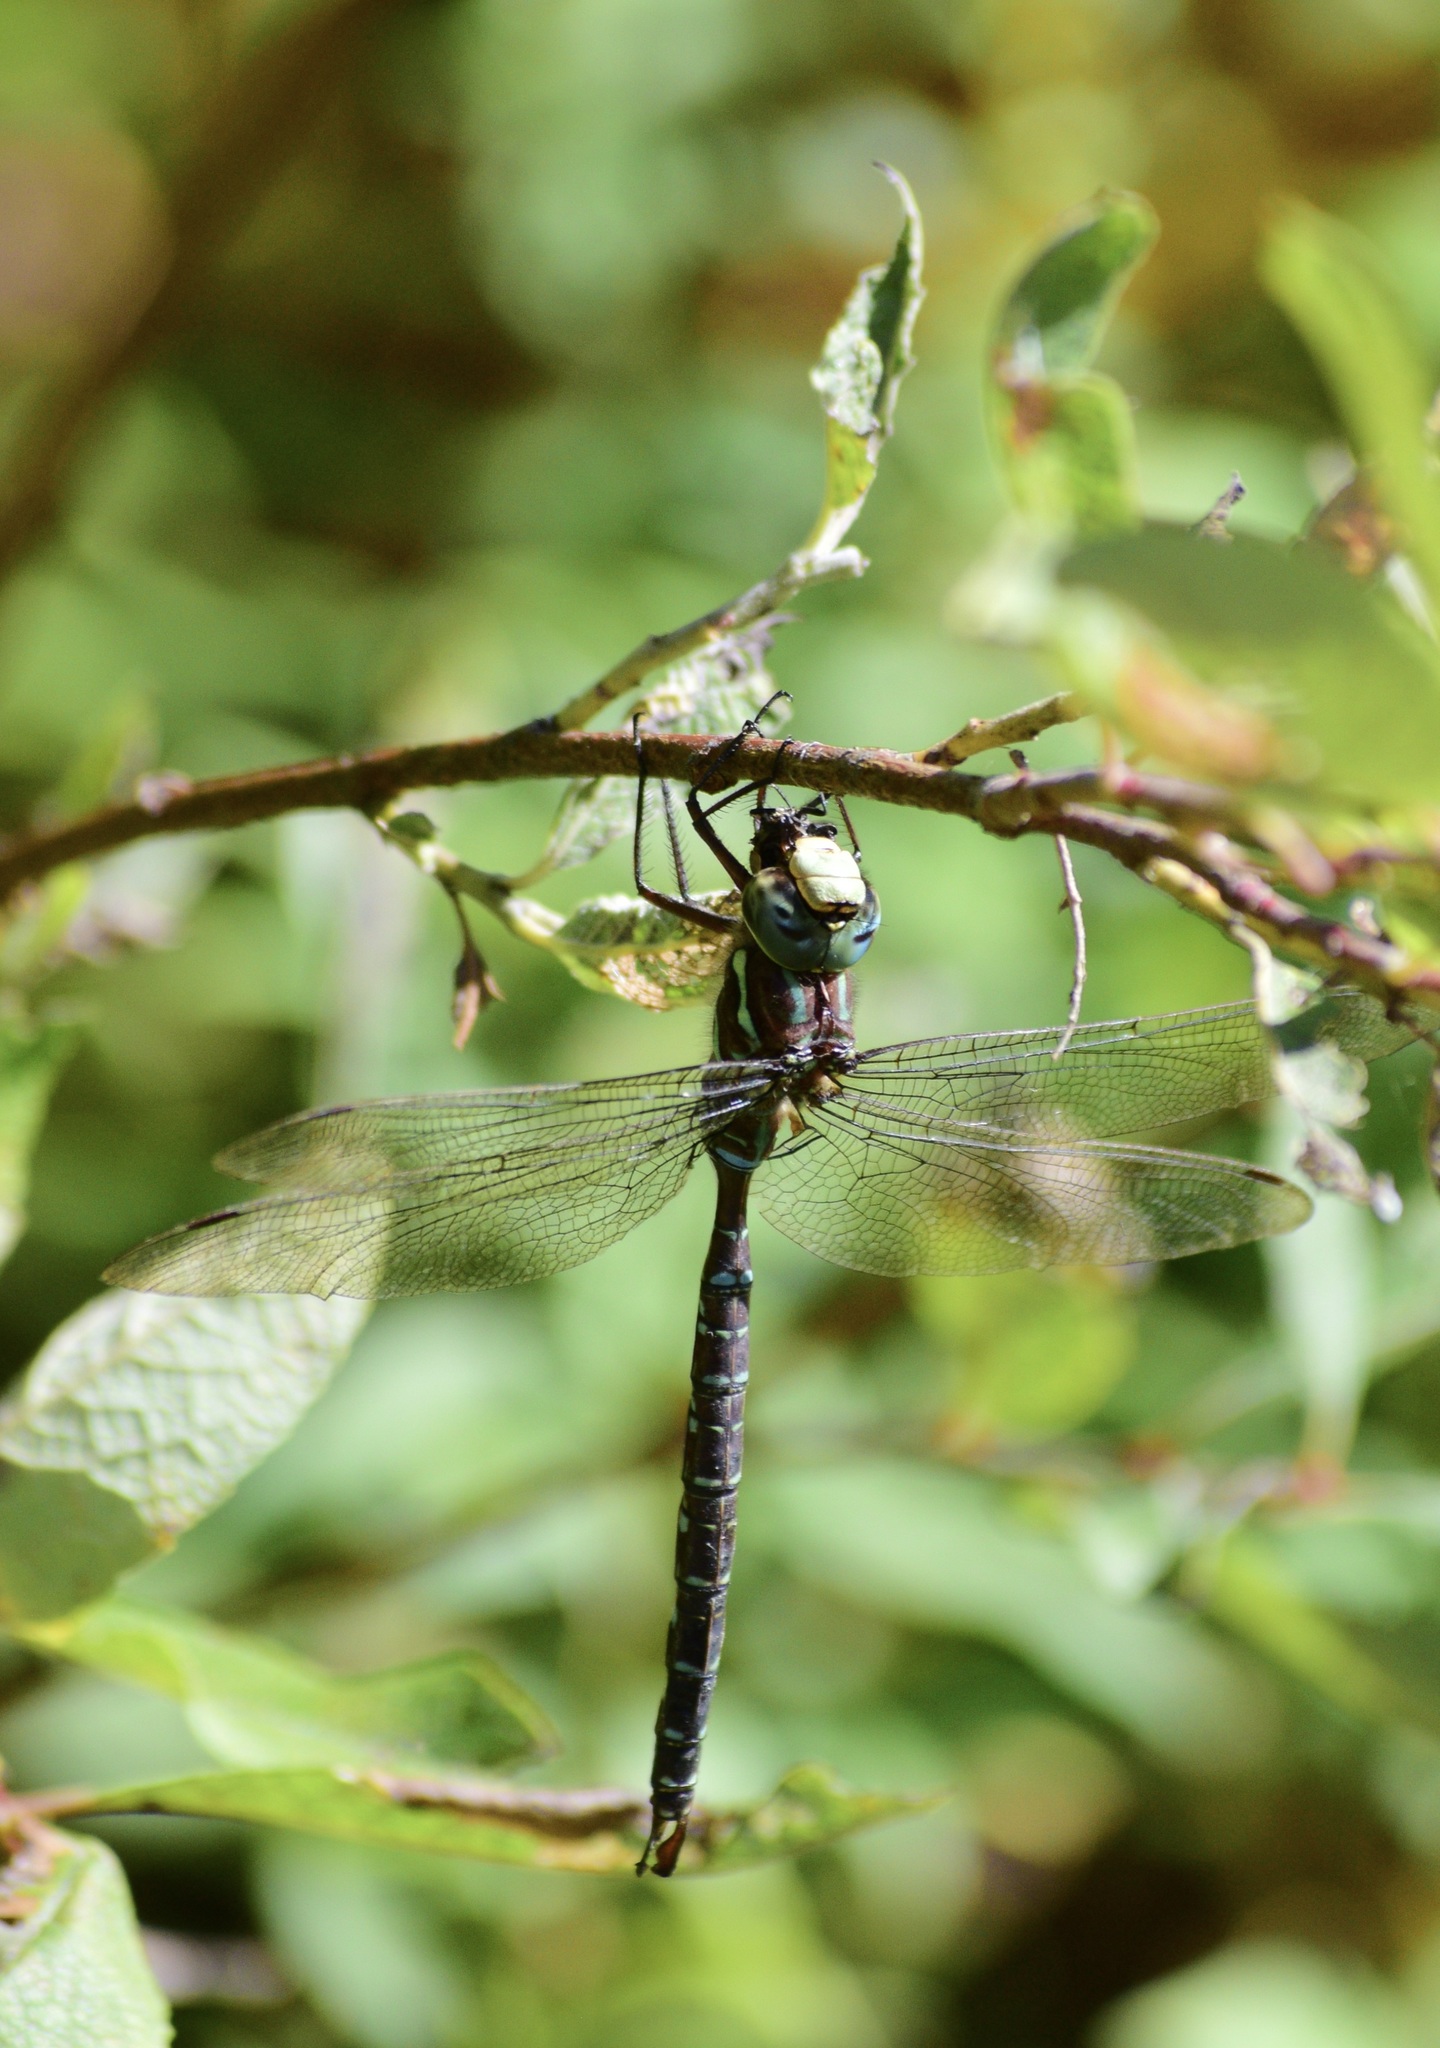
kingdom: Animalia
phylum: Arthropoda
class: Insecta
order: Odonata
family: Aeshnidae
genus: Aeshna
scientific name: Aeshna umbrosa
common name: Shadow darner
